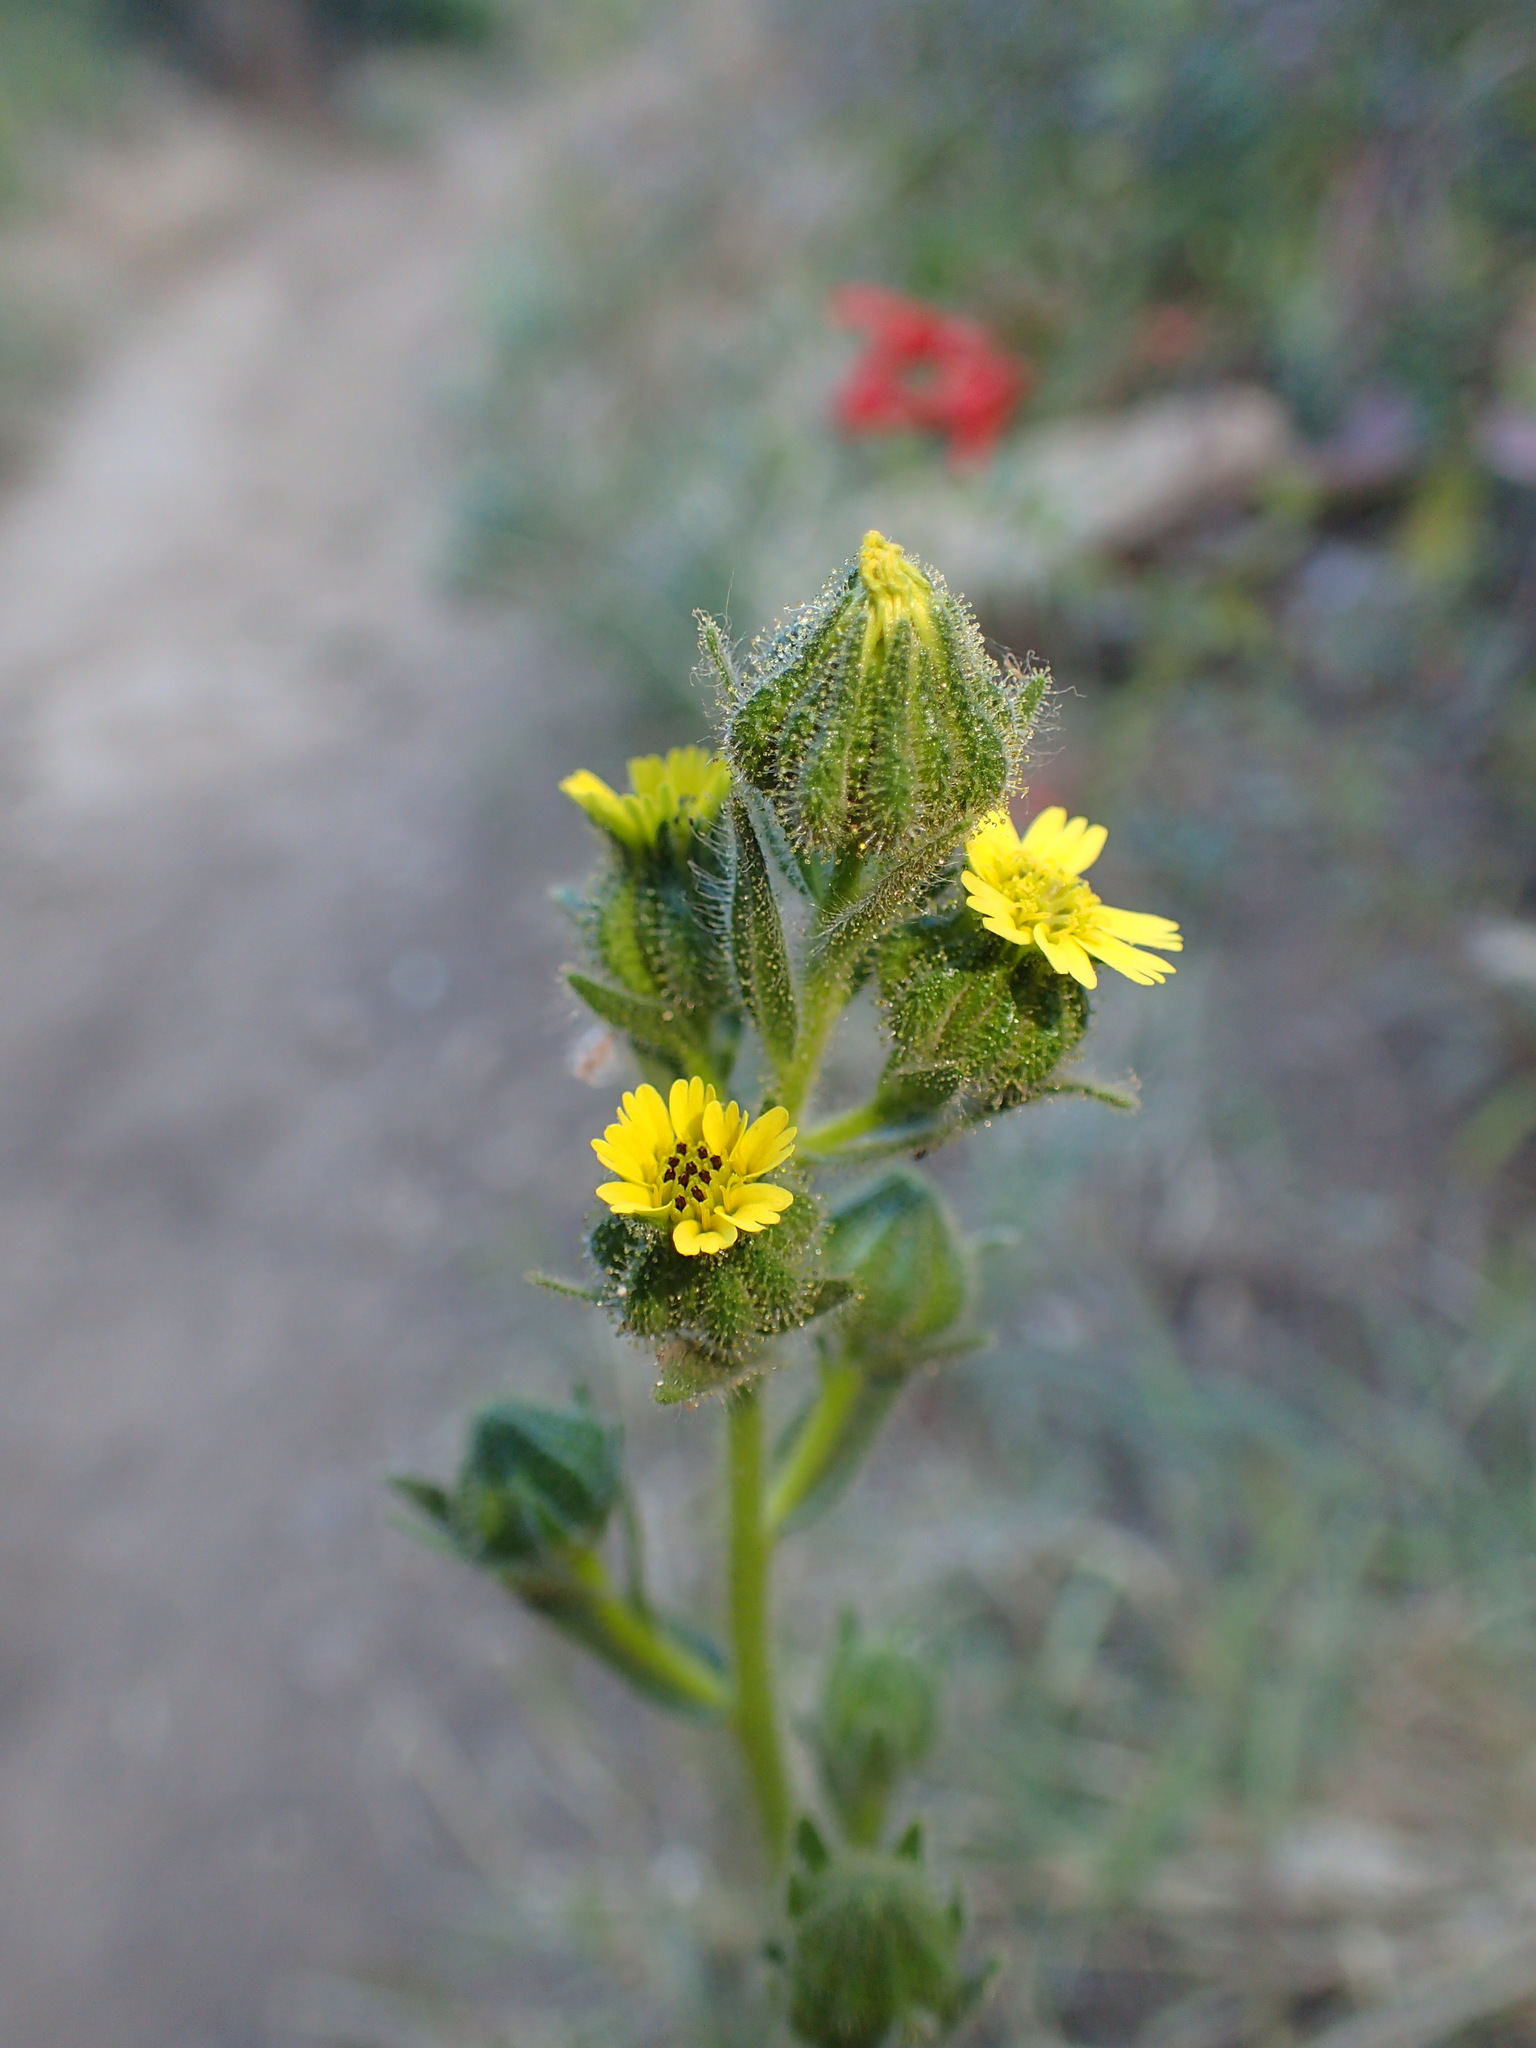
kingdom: Plantae
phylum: Tracheophyta
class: Magnoliopsida
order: Asterales
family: Asteraceae
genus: Madia
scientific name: Madia sativa
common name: Coast tarweed
